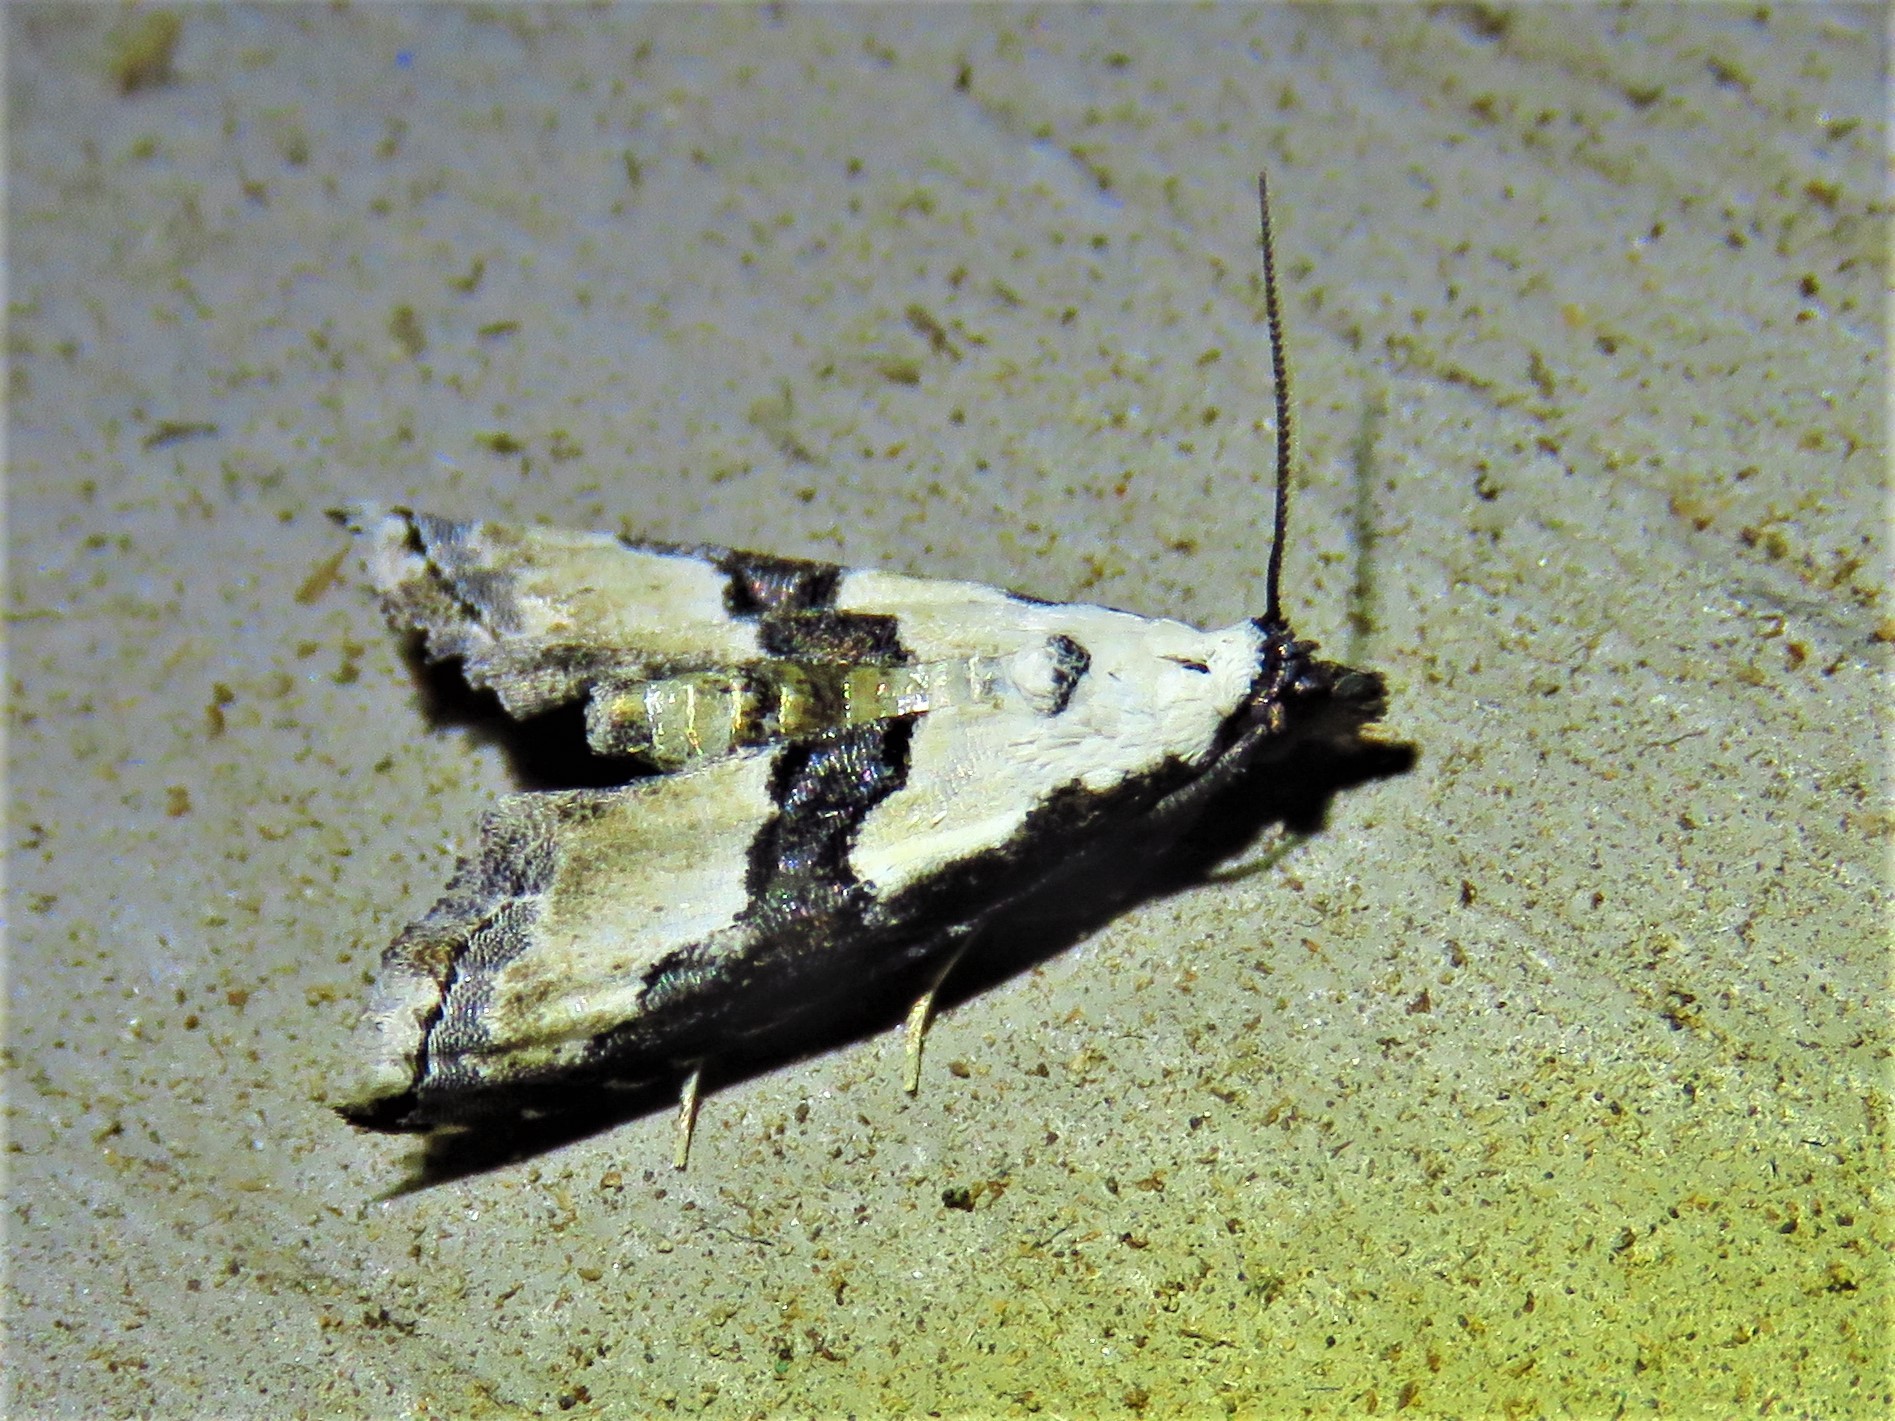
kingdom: Animalia
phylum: Arthropoda
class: Insecta
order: Lepidoptera
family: Noctuidae
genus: Nigetia
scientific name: Nigetia formosalis
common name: Thin-winged owlet
